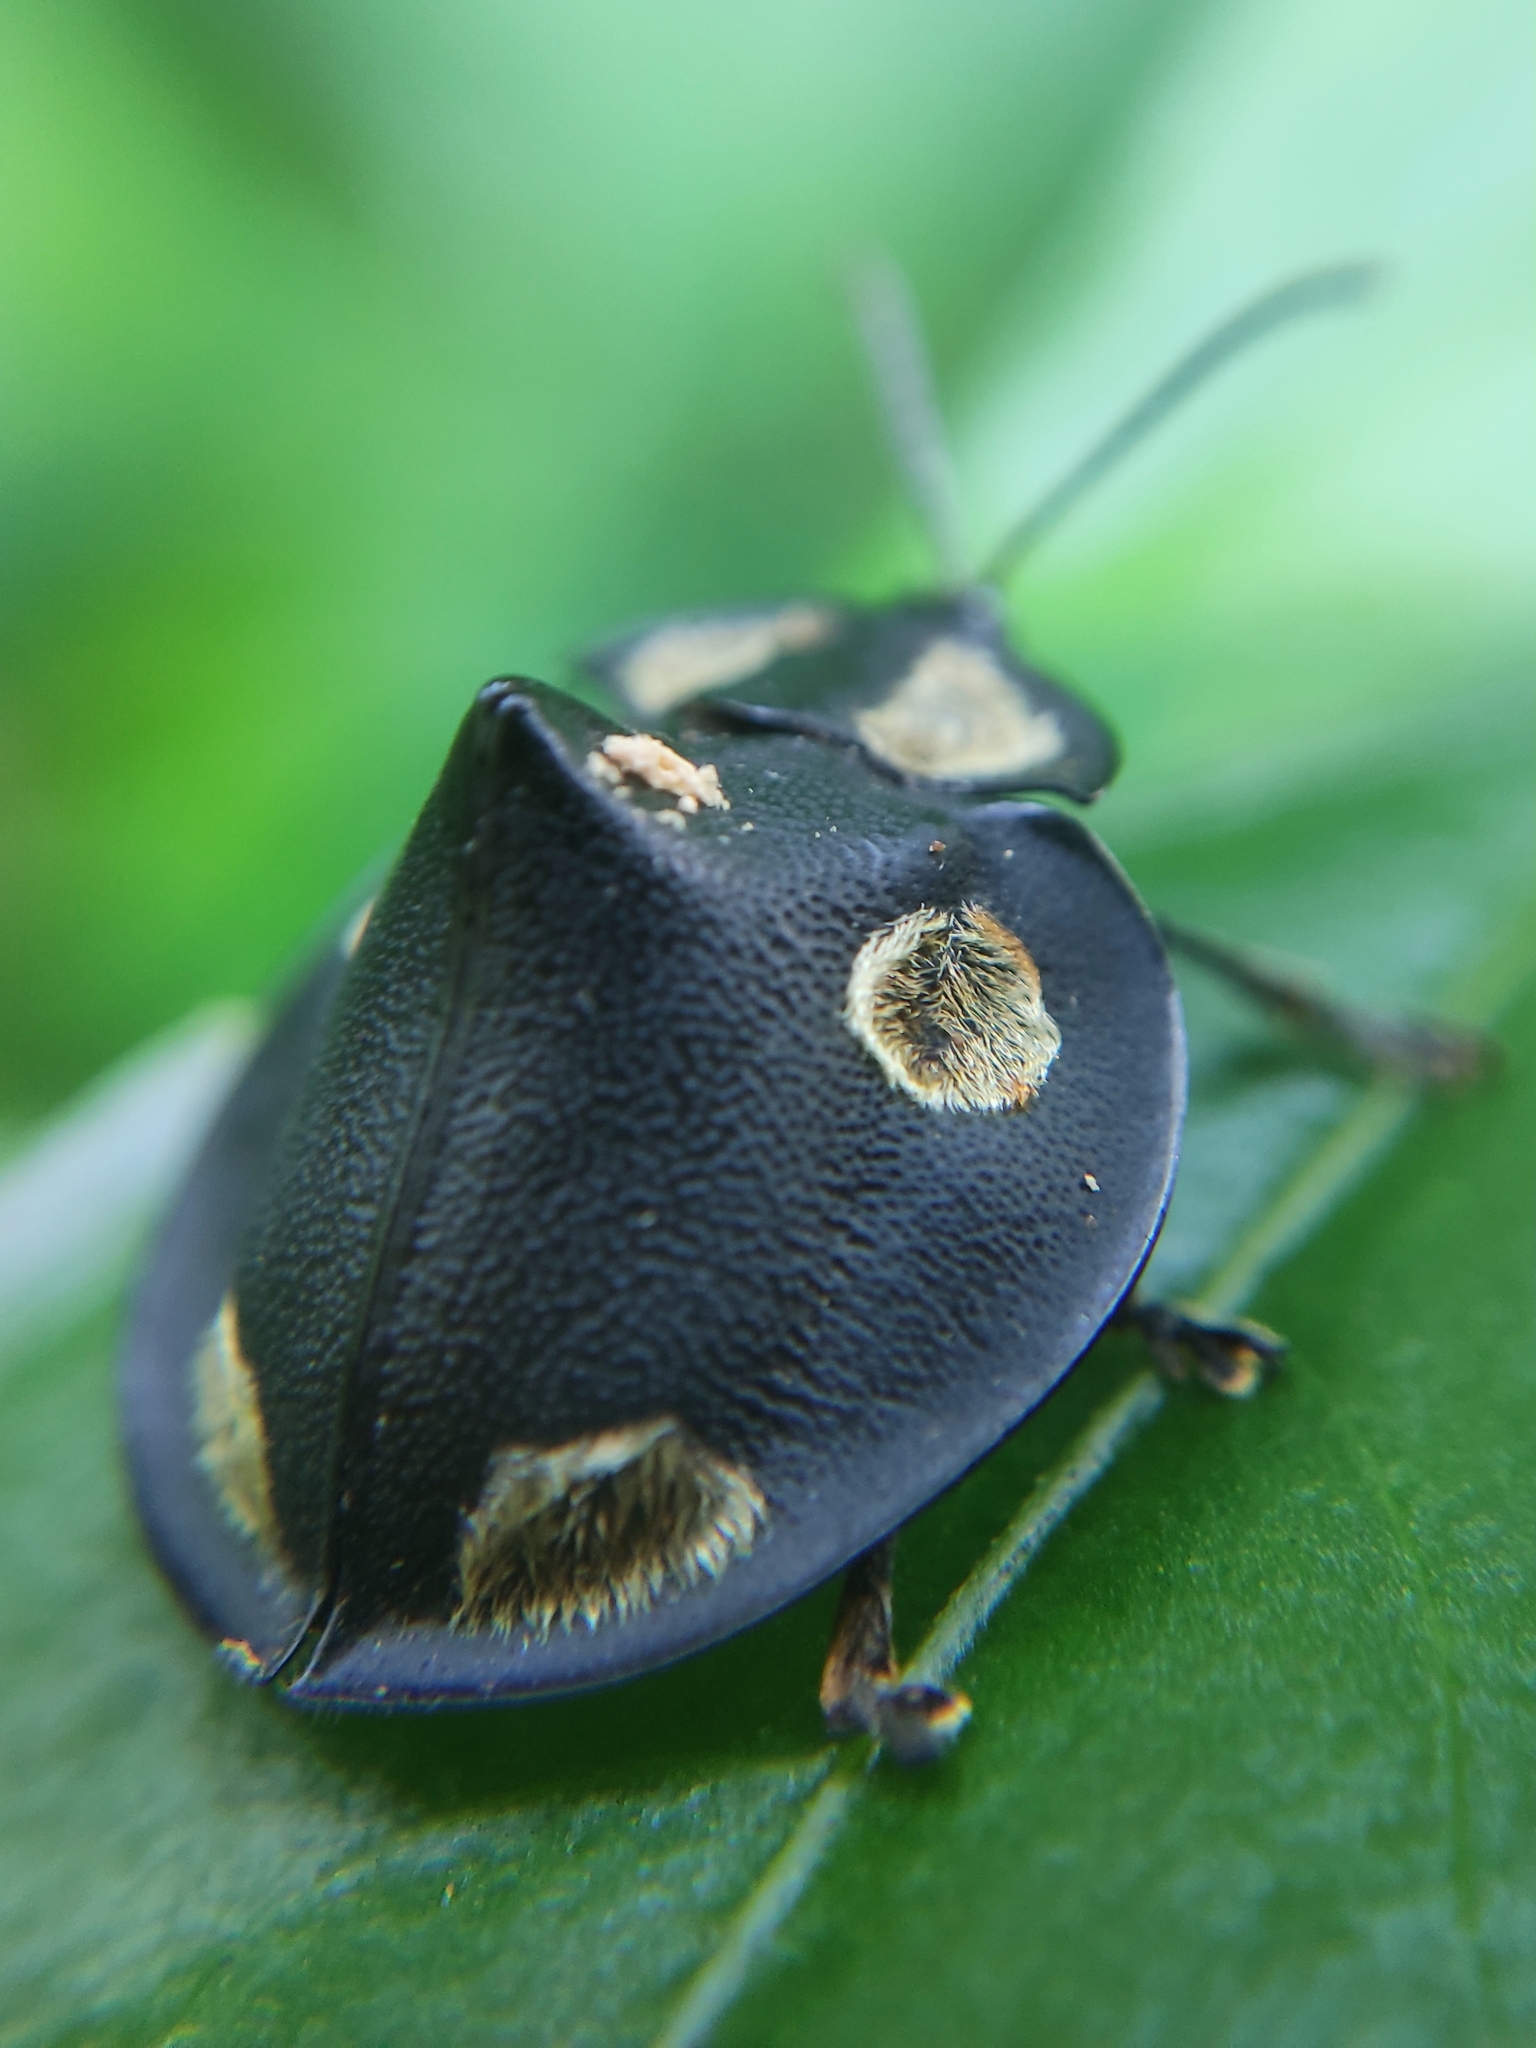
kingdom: Animalia
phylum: Arthropoda
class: Insecta
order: Coleoptera
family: Chrysomelidae
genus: Mesomphalia
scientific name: Mesomphalia turrita
